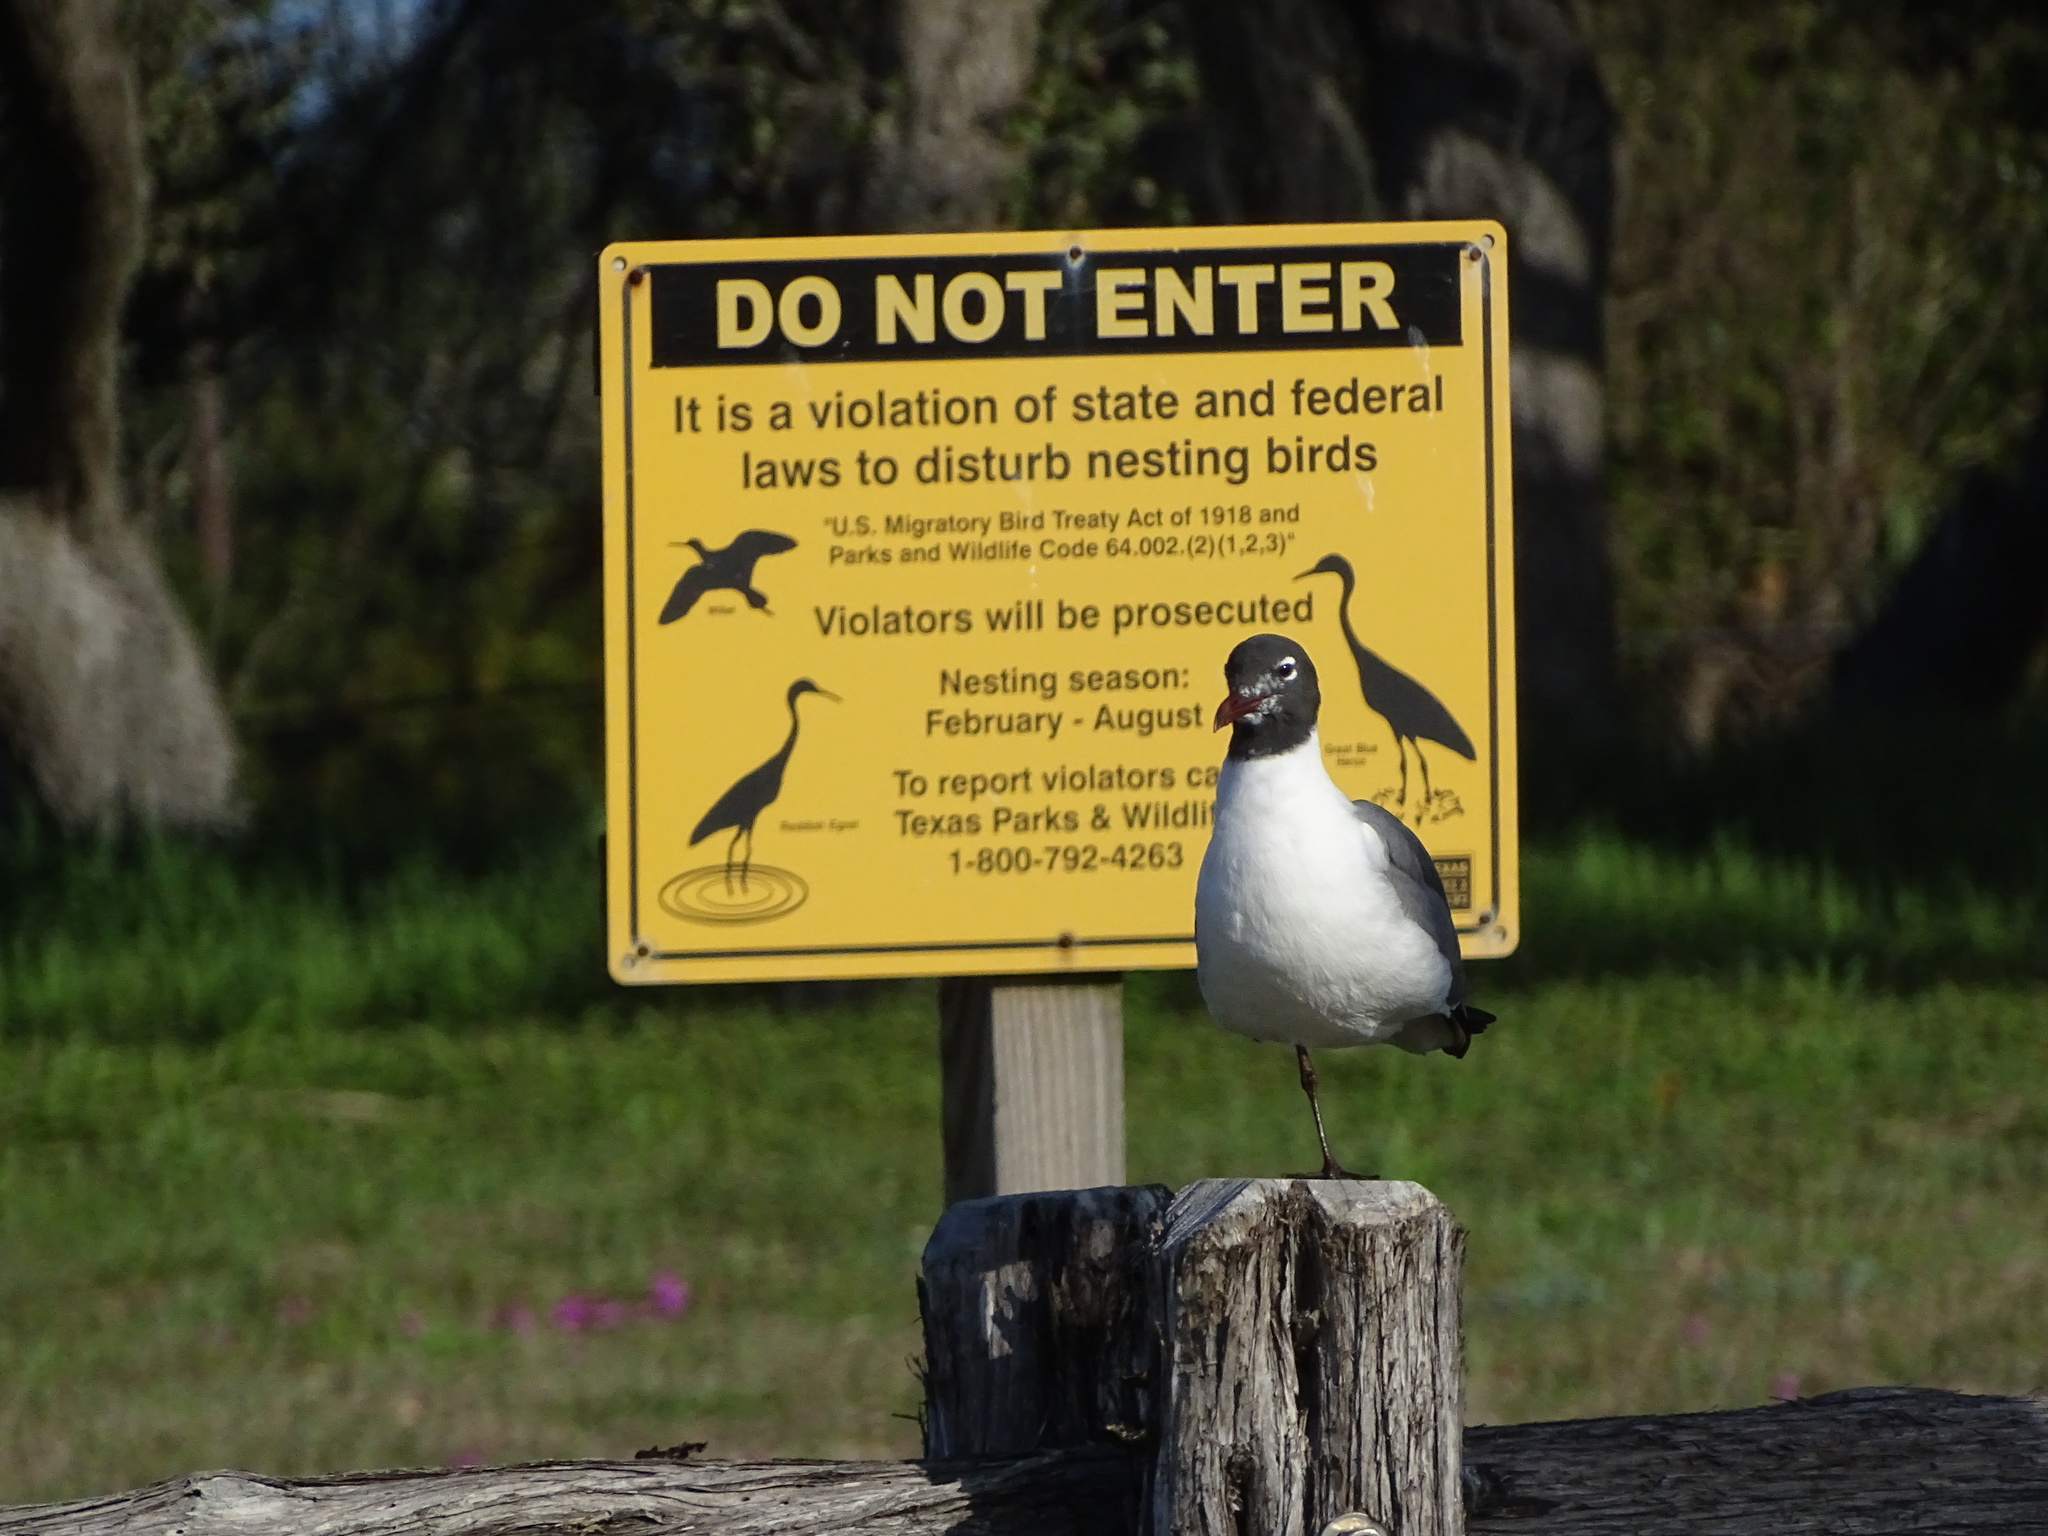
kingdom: Animalia
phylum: Chordata
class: Aves
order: Charadriiformes
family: Laridae
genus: Leucophaeus
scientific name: Leucophaeus atricilla
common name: Laughing gull
